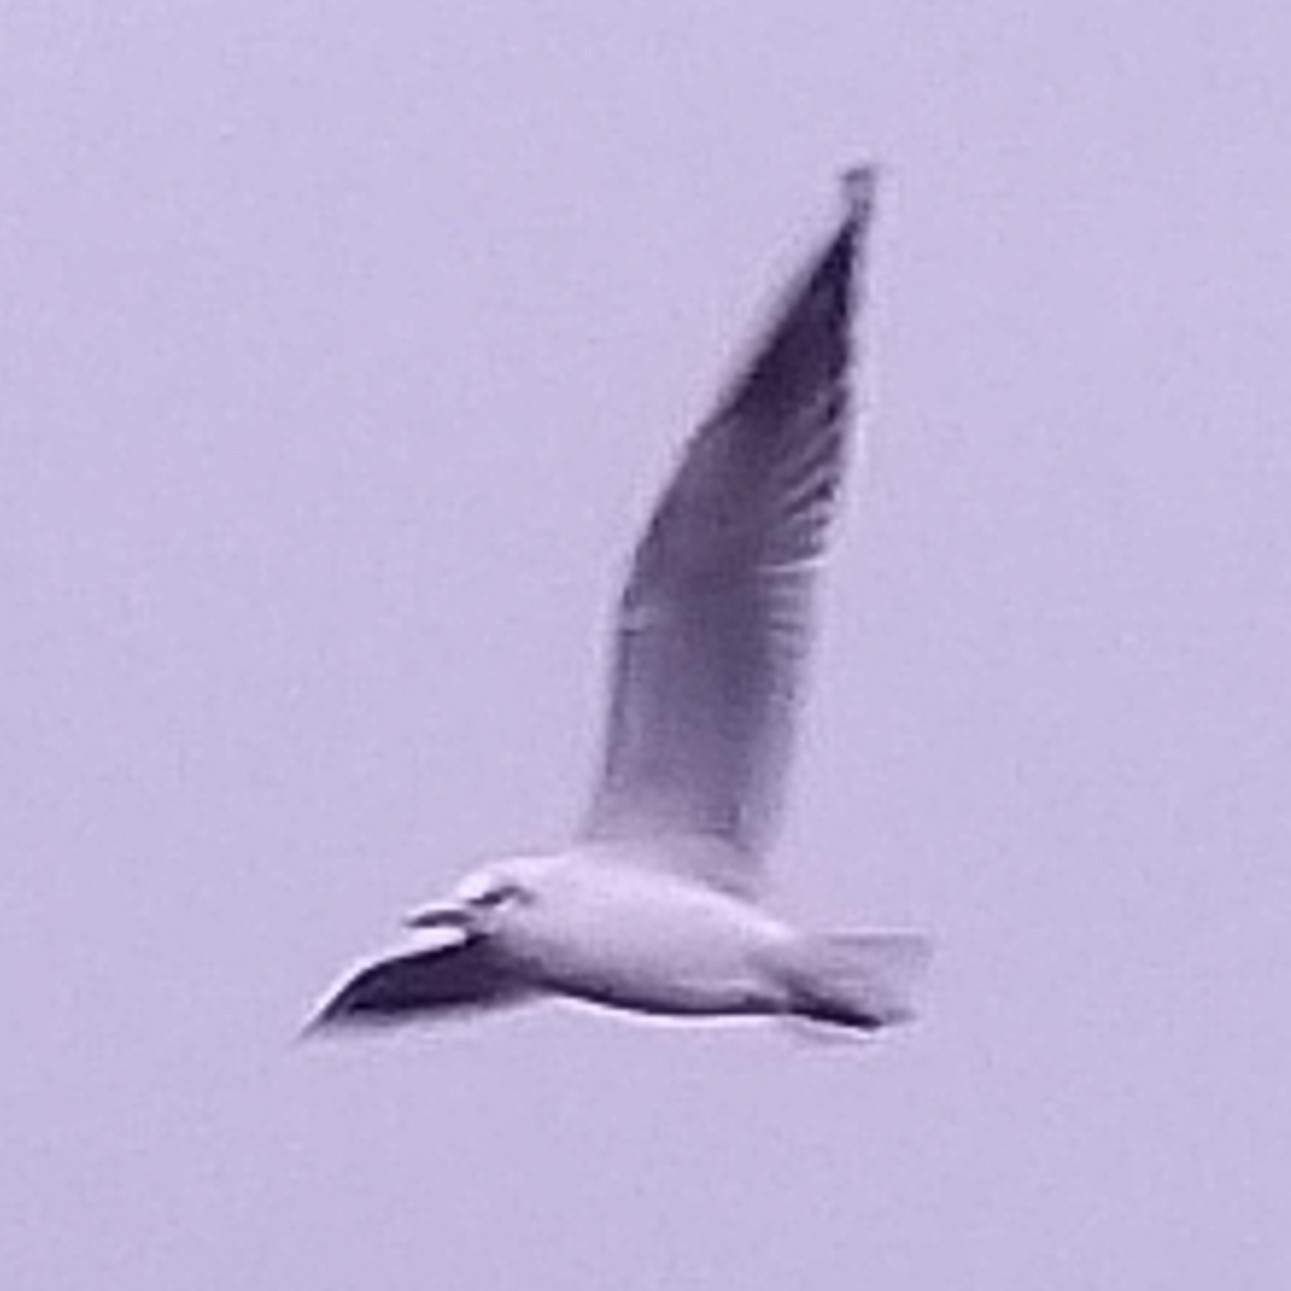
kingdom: Animalia
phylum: Chordata
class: Aves
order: Charadriiformes
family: Laridae
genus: Chroicocephalus
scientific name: Chroicocephalus ridibundus
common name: Black-headed gull
